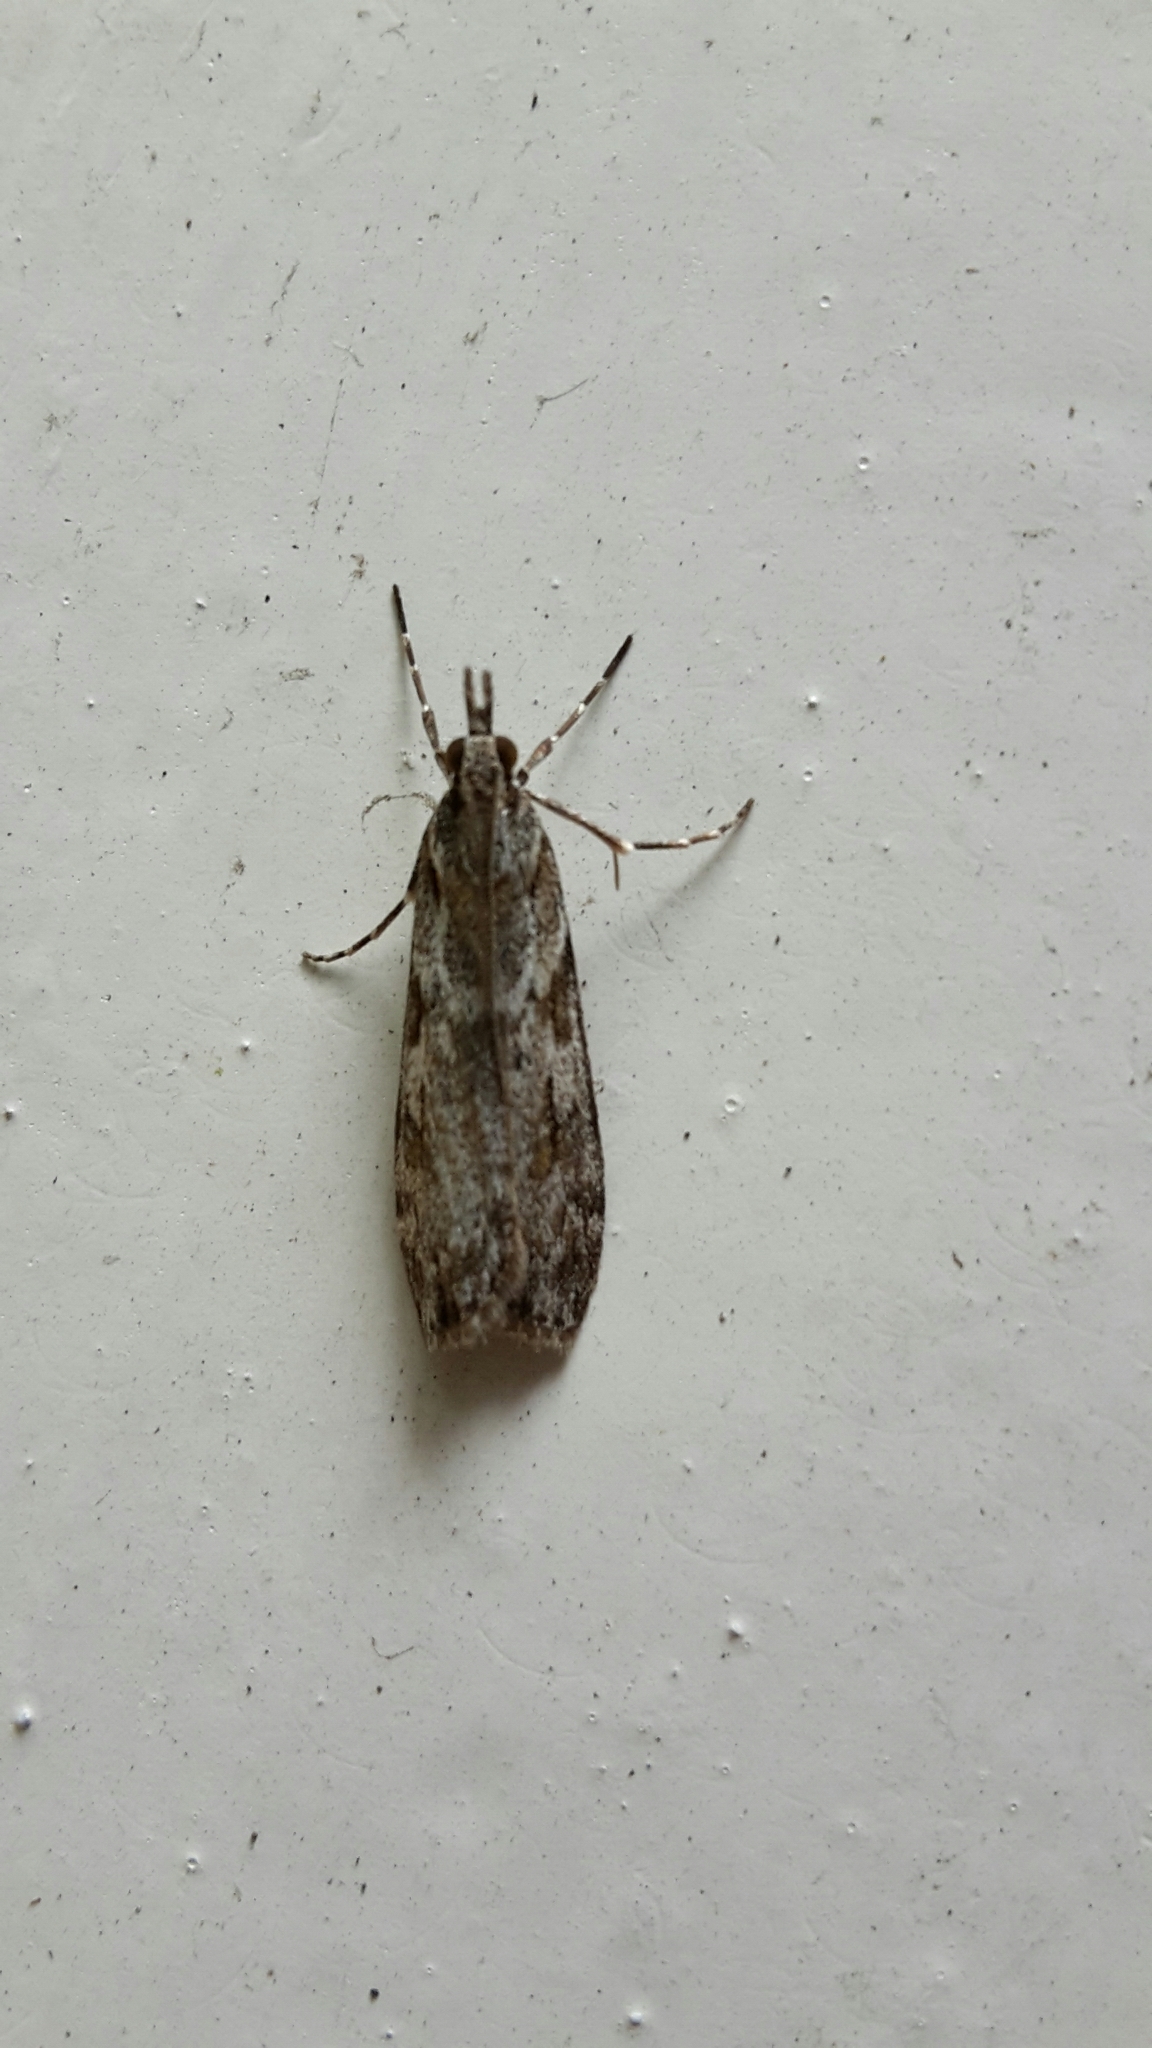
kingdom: Animalia
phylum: Arthropoda
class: Insecta
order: Lepidoptera
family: Crambidae
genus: Scoparia
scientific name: Scoparia halopis
